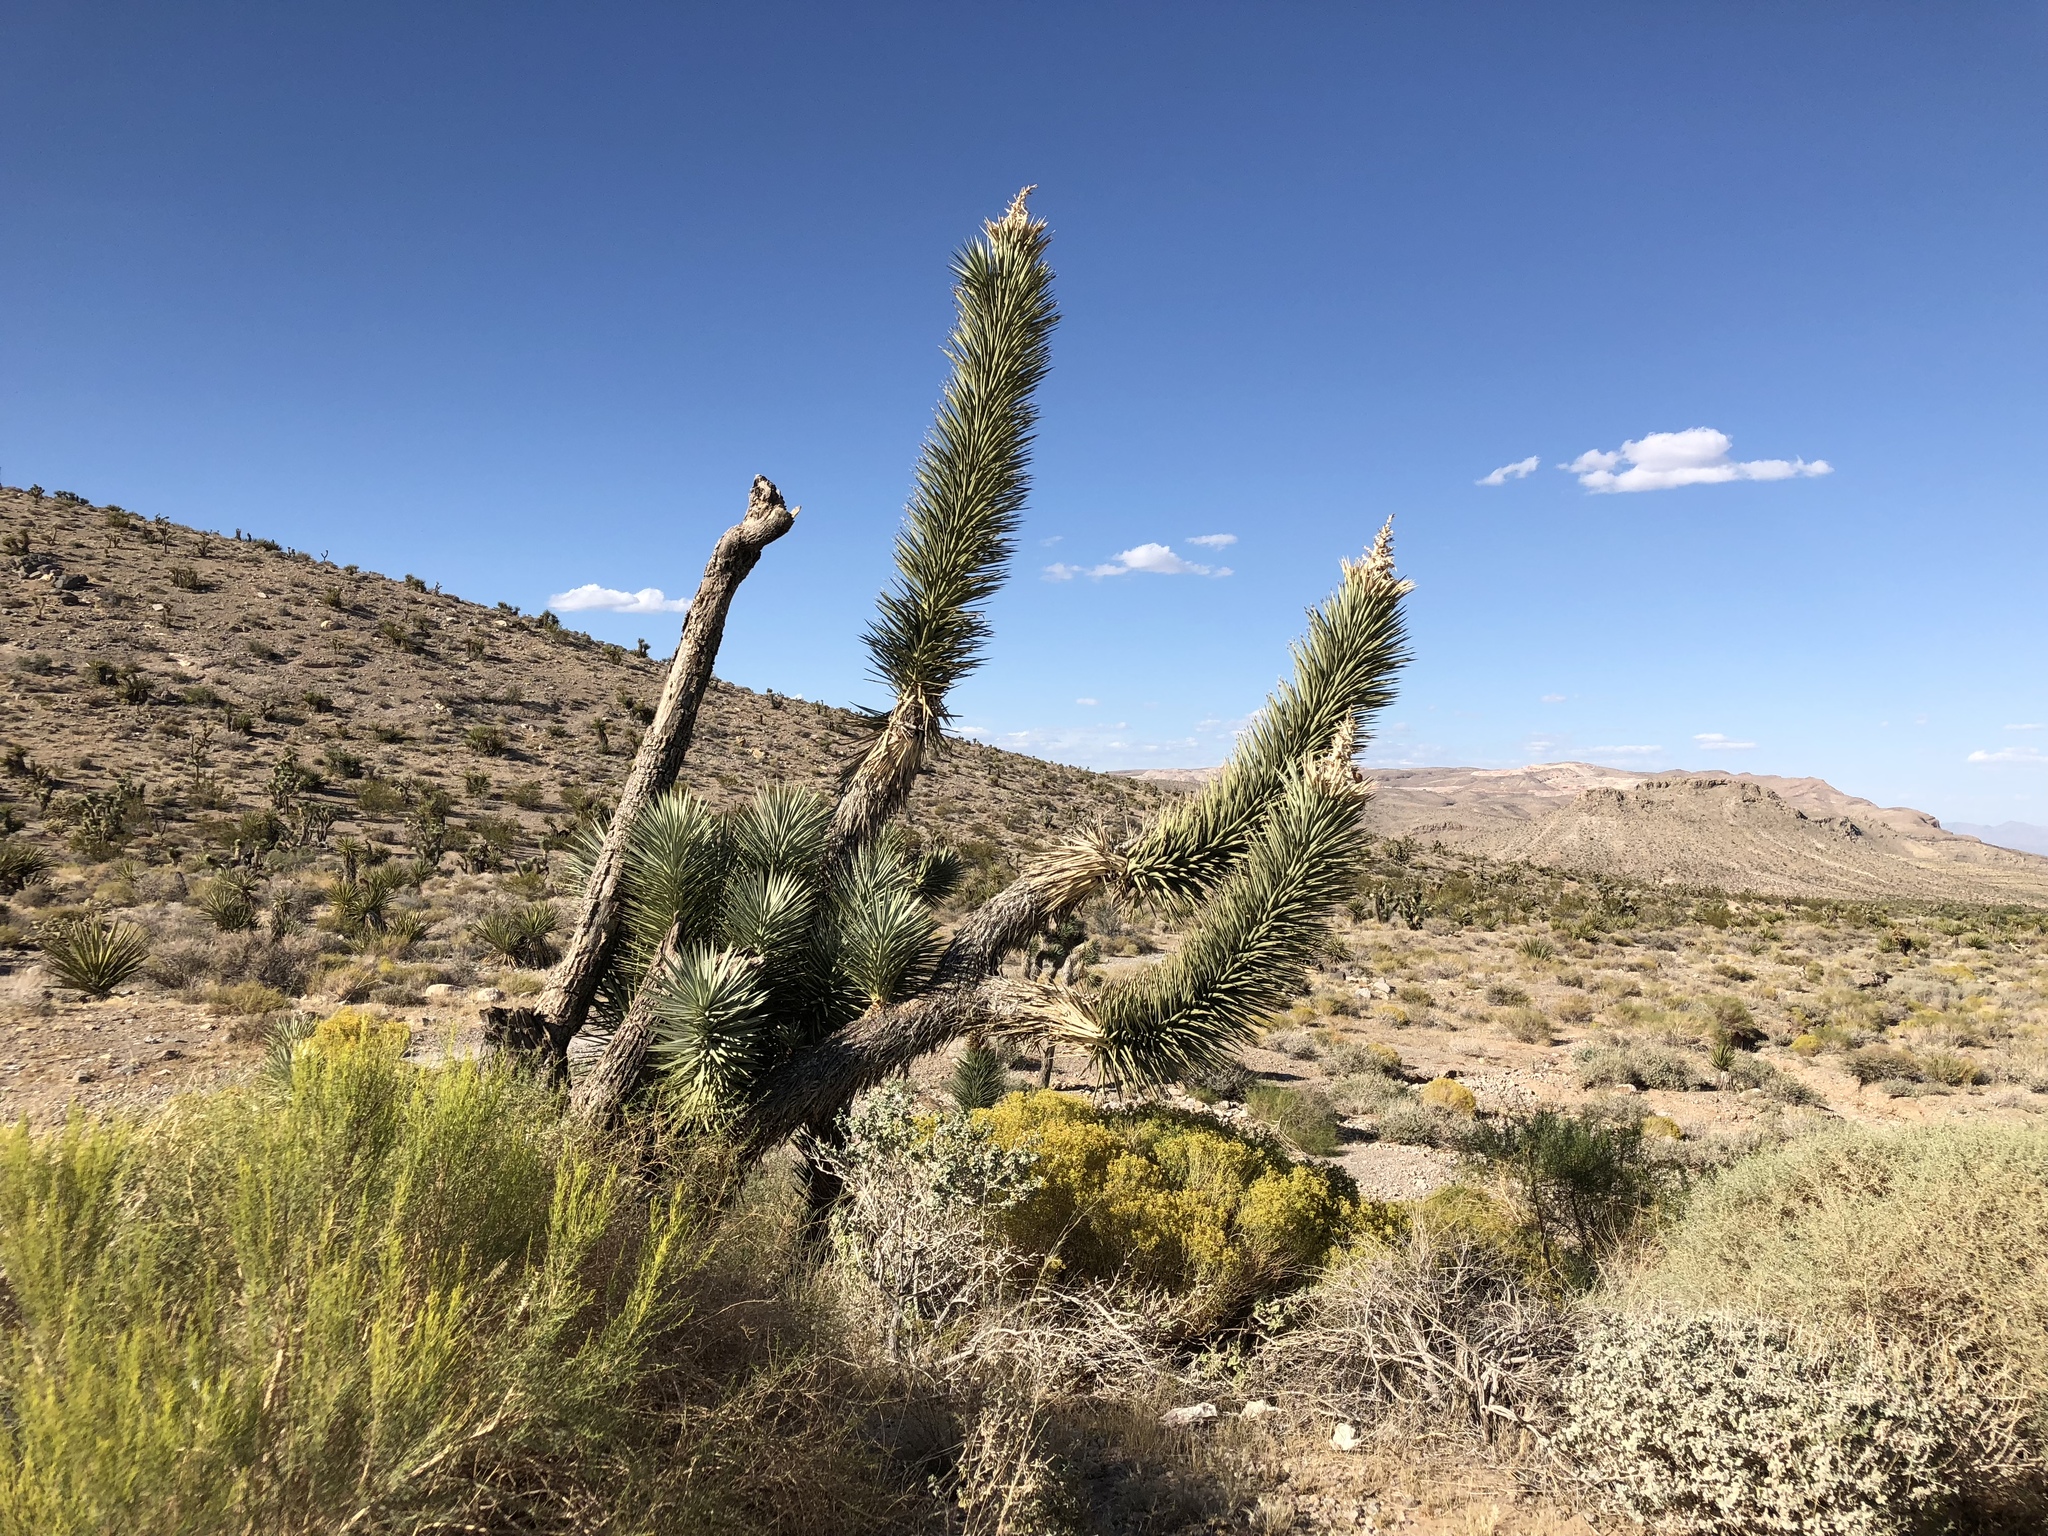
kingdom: Plantae
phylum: Tracheophyta
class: Liliopsida
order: Asparagales
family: Asparagaceae
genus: Yucca
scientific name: Yucca brevifolia
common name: Joshua tree
